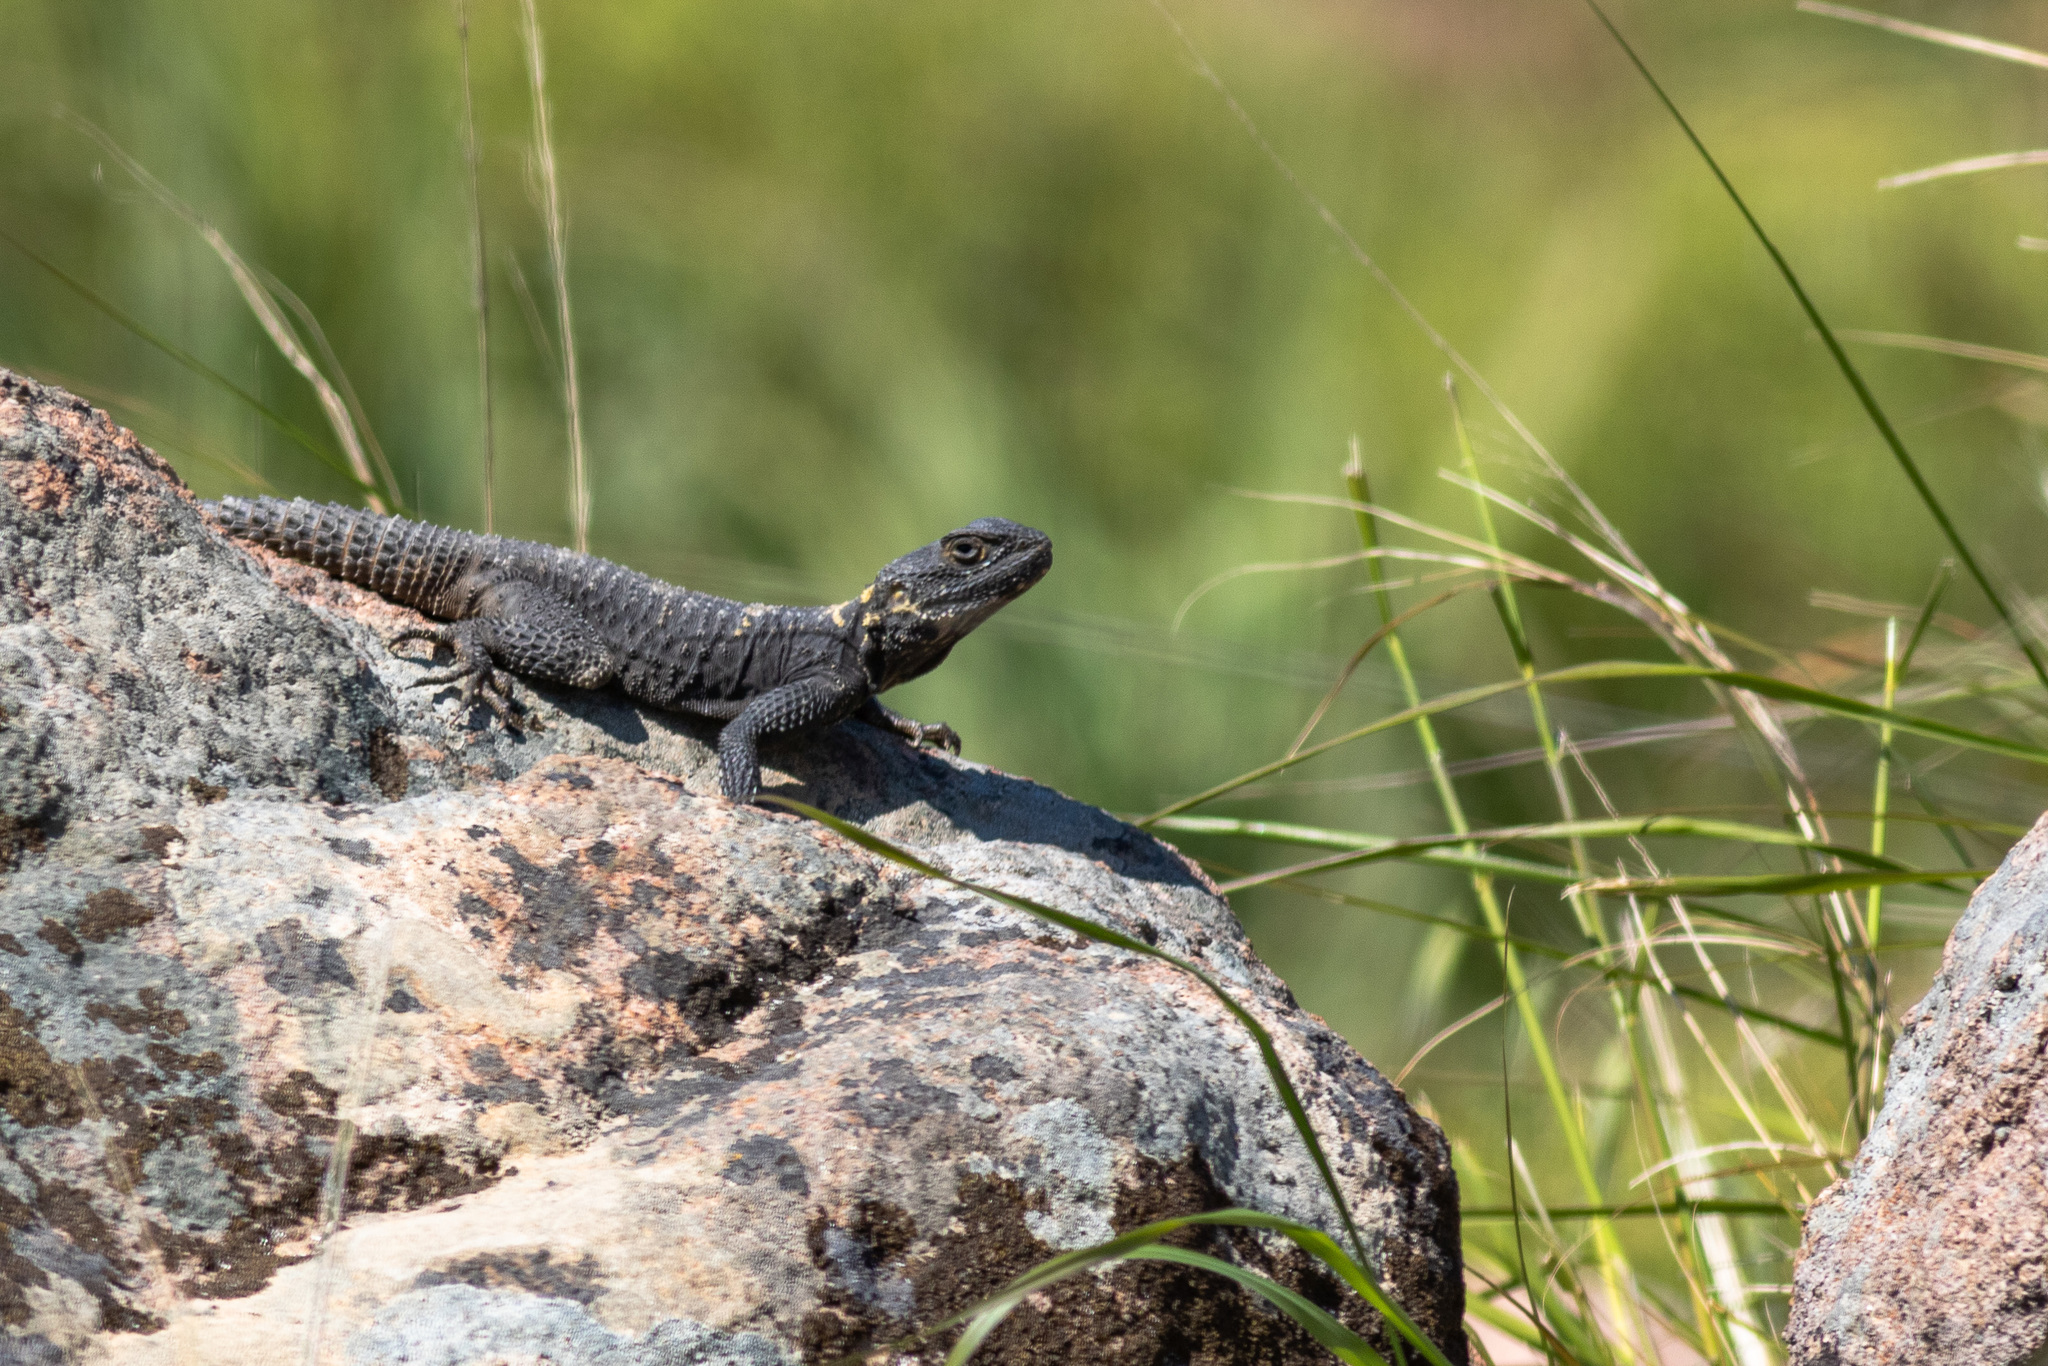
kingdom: Animalia
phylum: Chordata
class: Squamata
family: Agamidae
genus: Stellagama
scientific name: Stellagama stellio
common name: Starred agama
